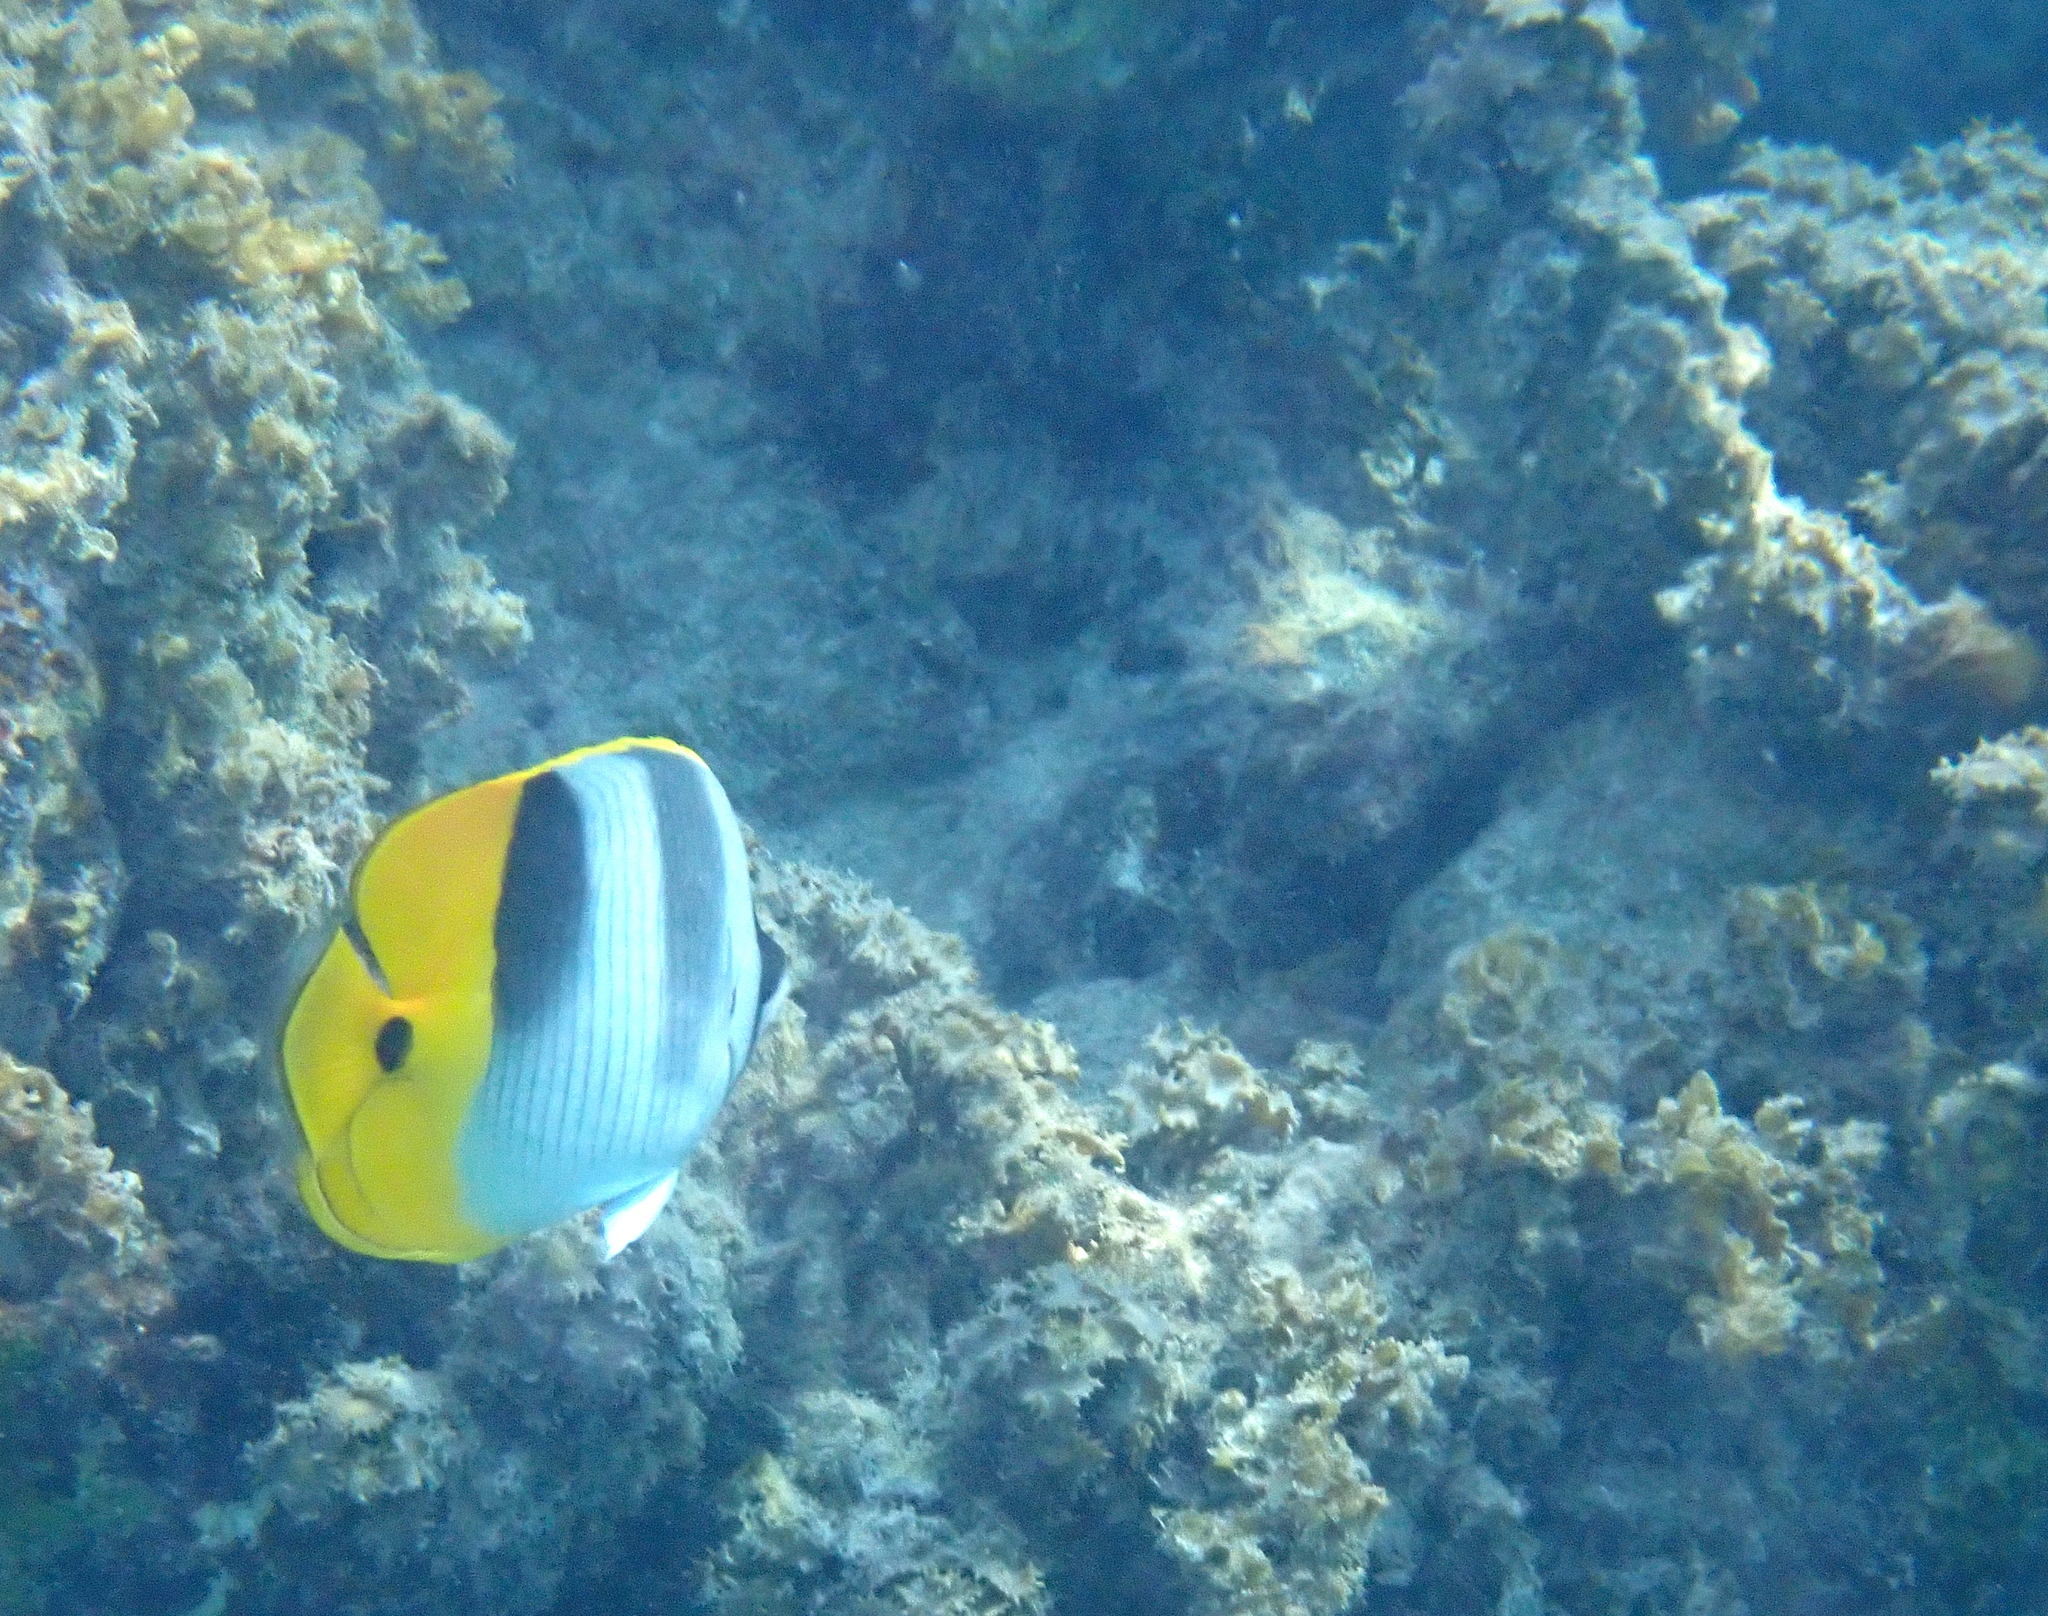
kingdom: Animalia
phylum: Chordata
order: Perciformes
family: Chaetodontidae
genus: Chaetodon
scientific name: Chaetodon ulietensis
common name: Pacific double-saddle butterflyfish
